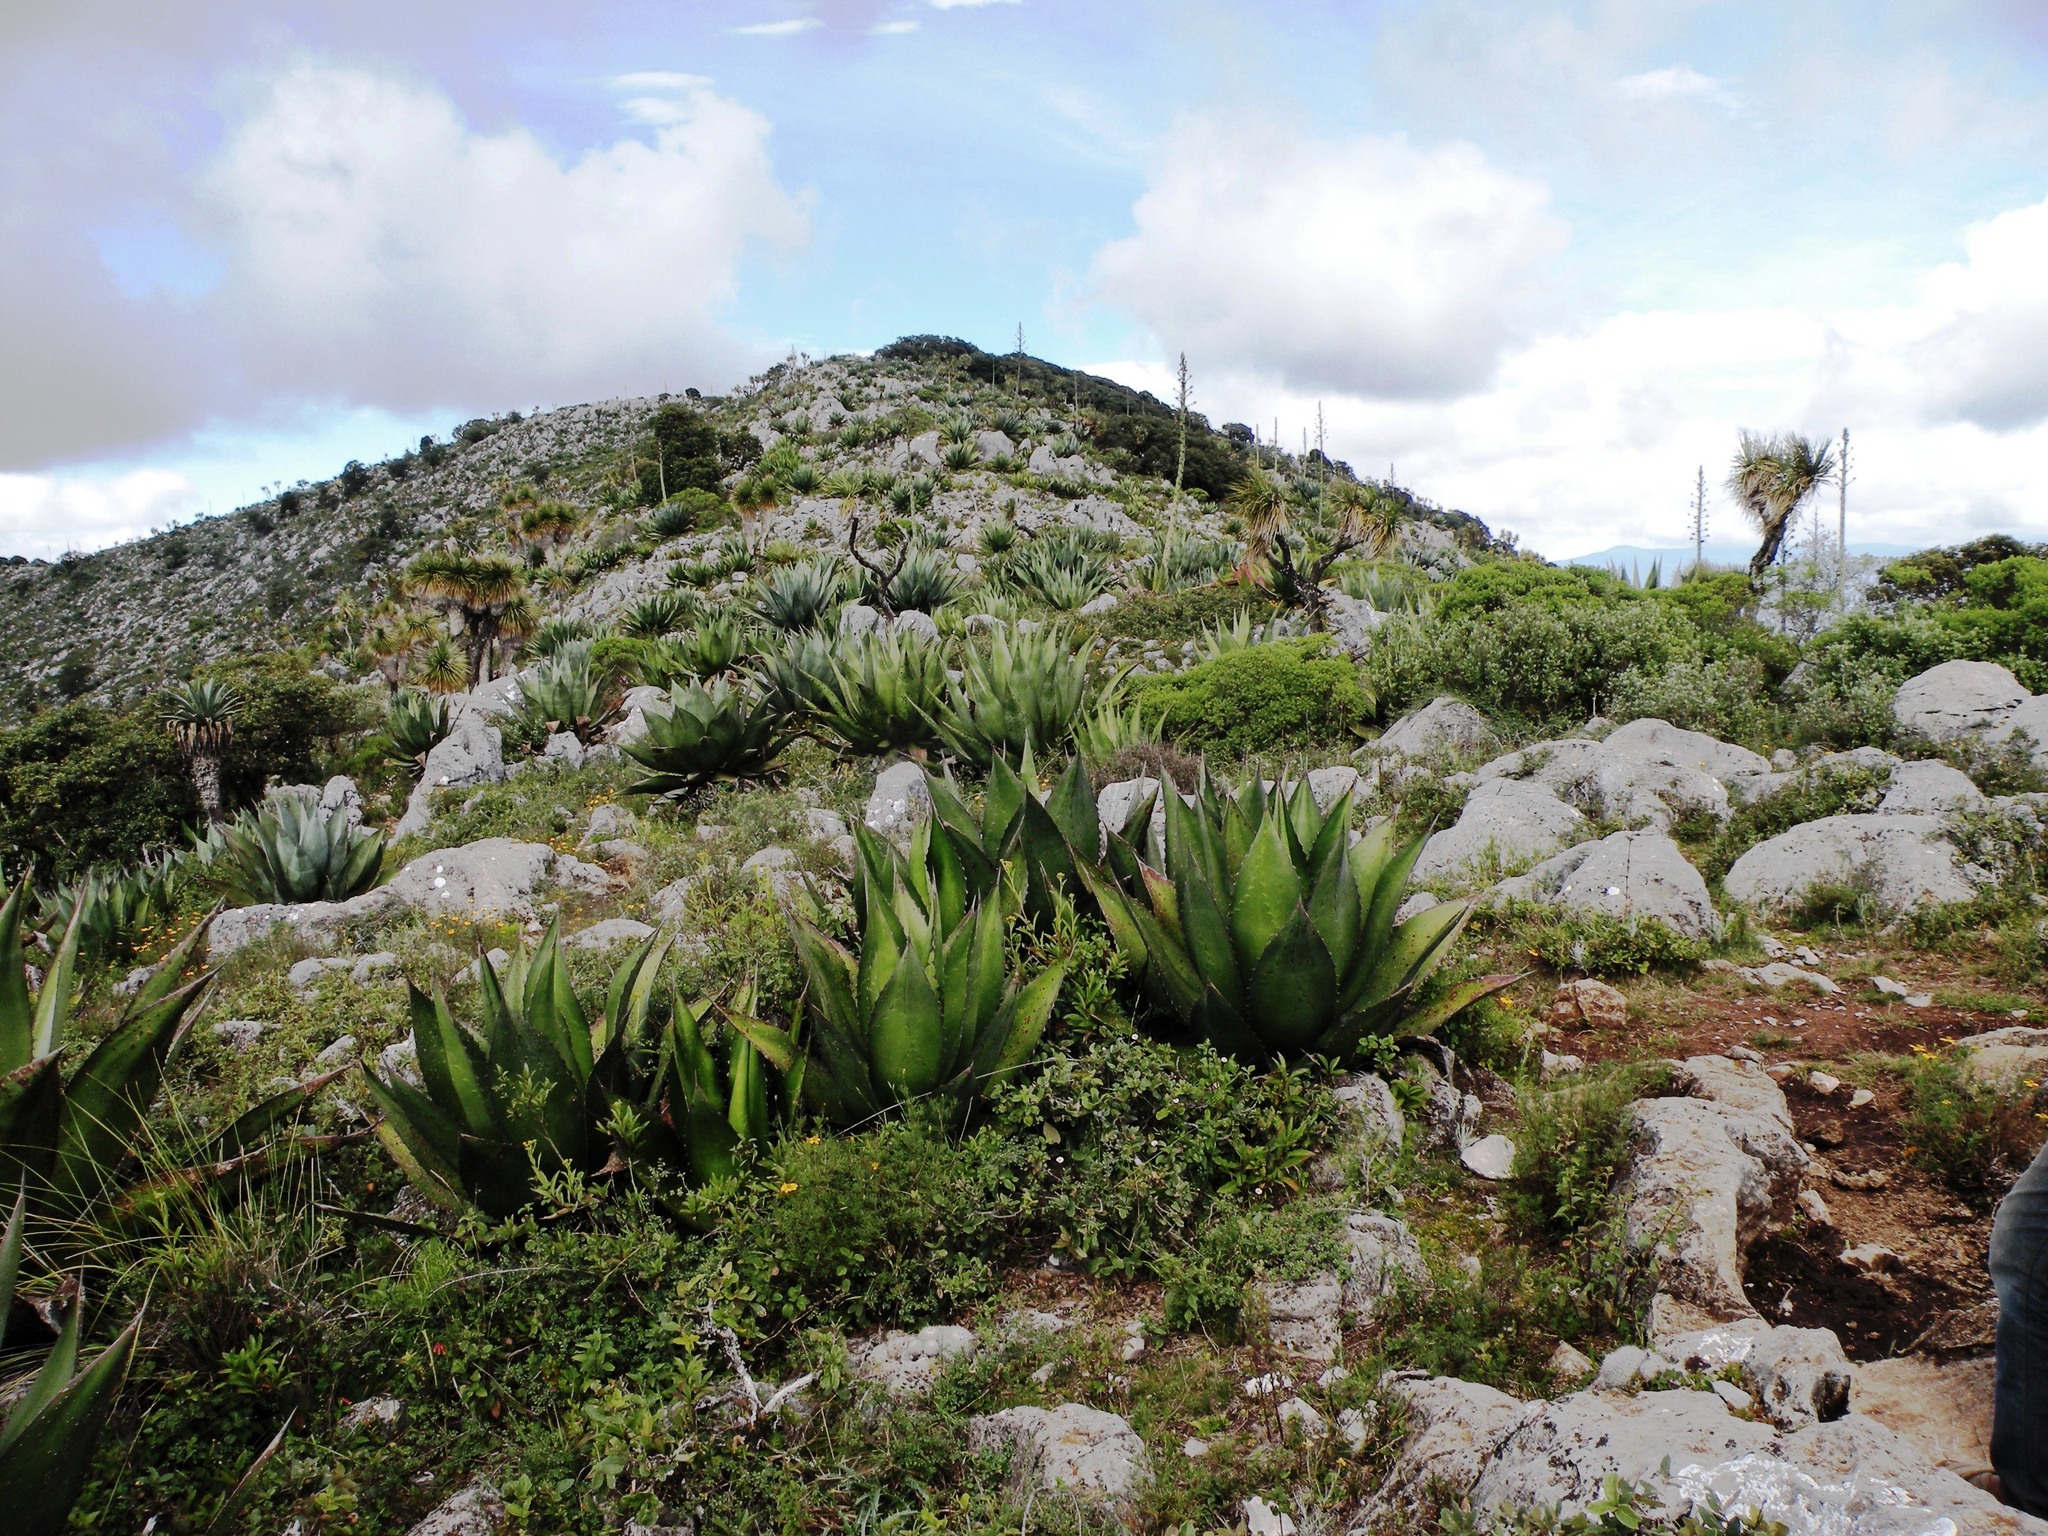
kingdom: Plantae
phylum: Tracheophyta
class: Liliopsida
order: Asparagales
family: Asparagaceae
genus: Agave
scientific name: Agave atrovirens
